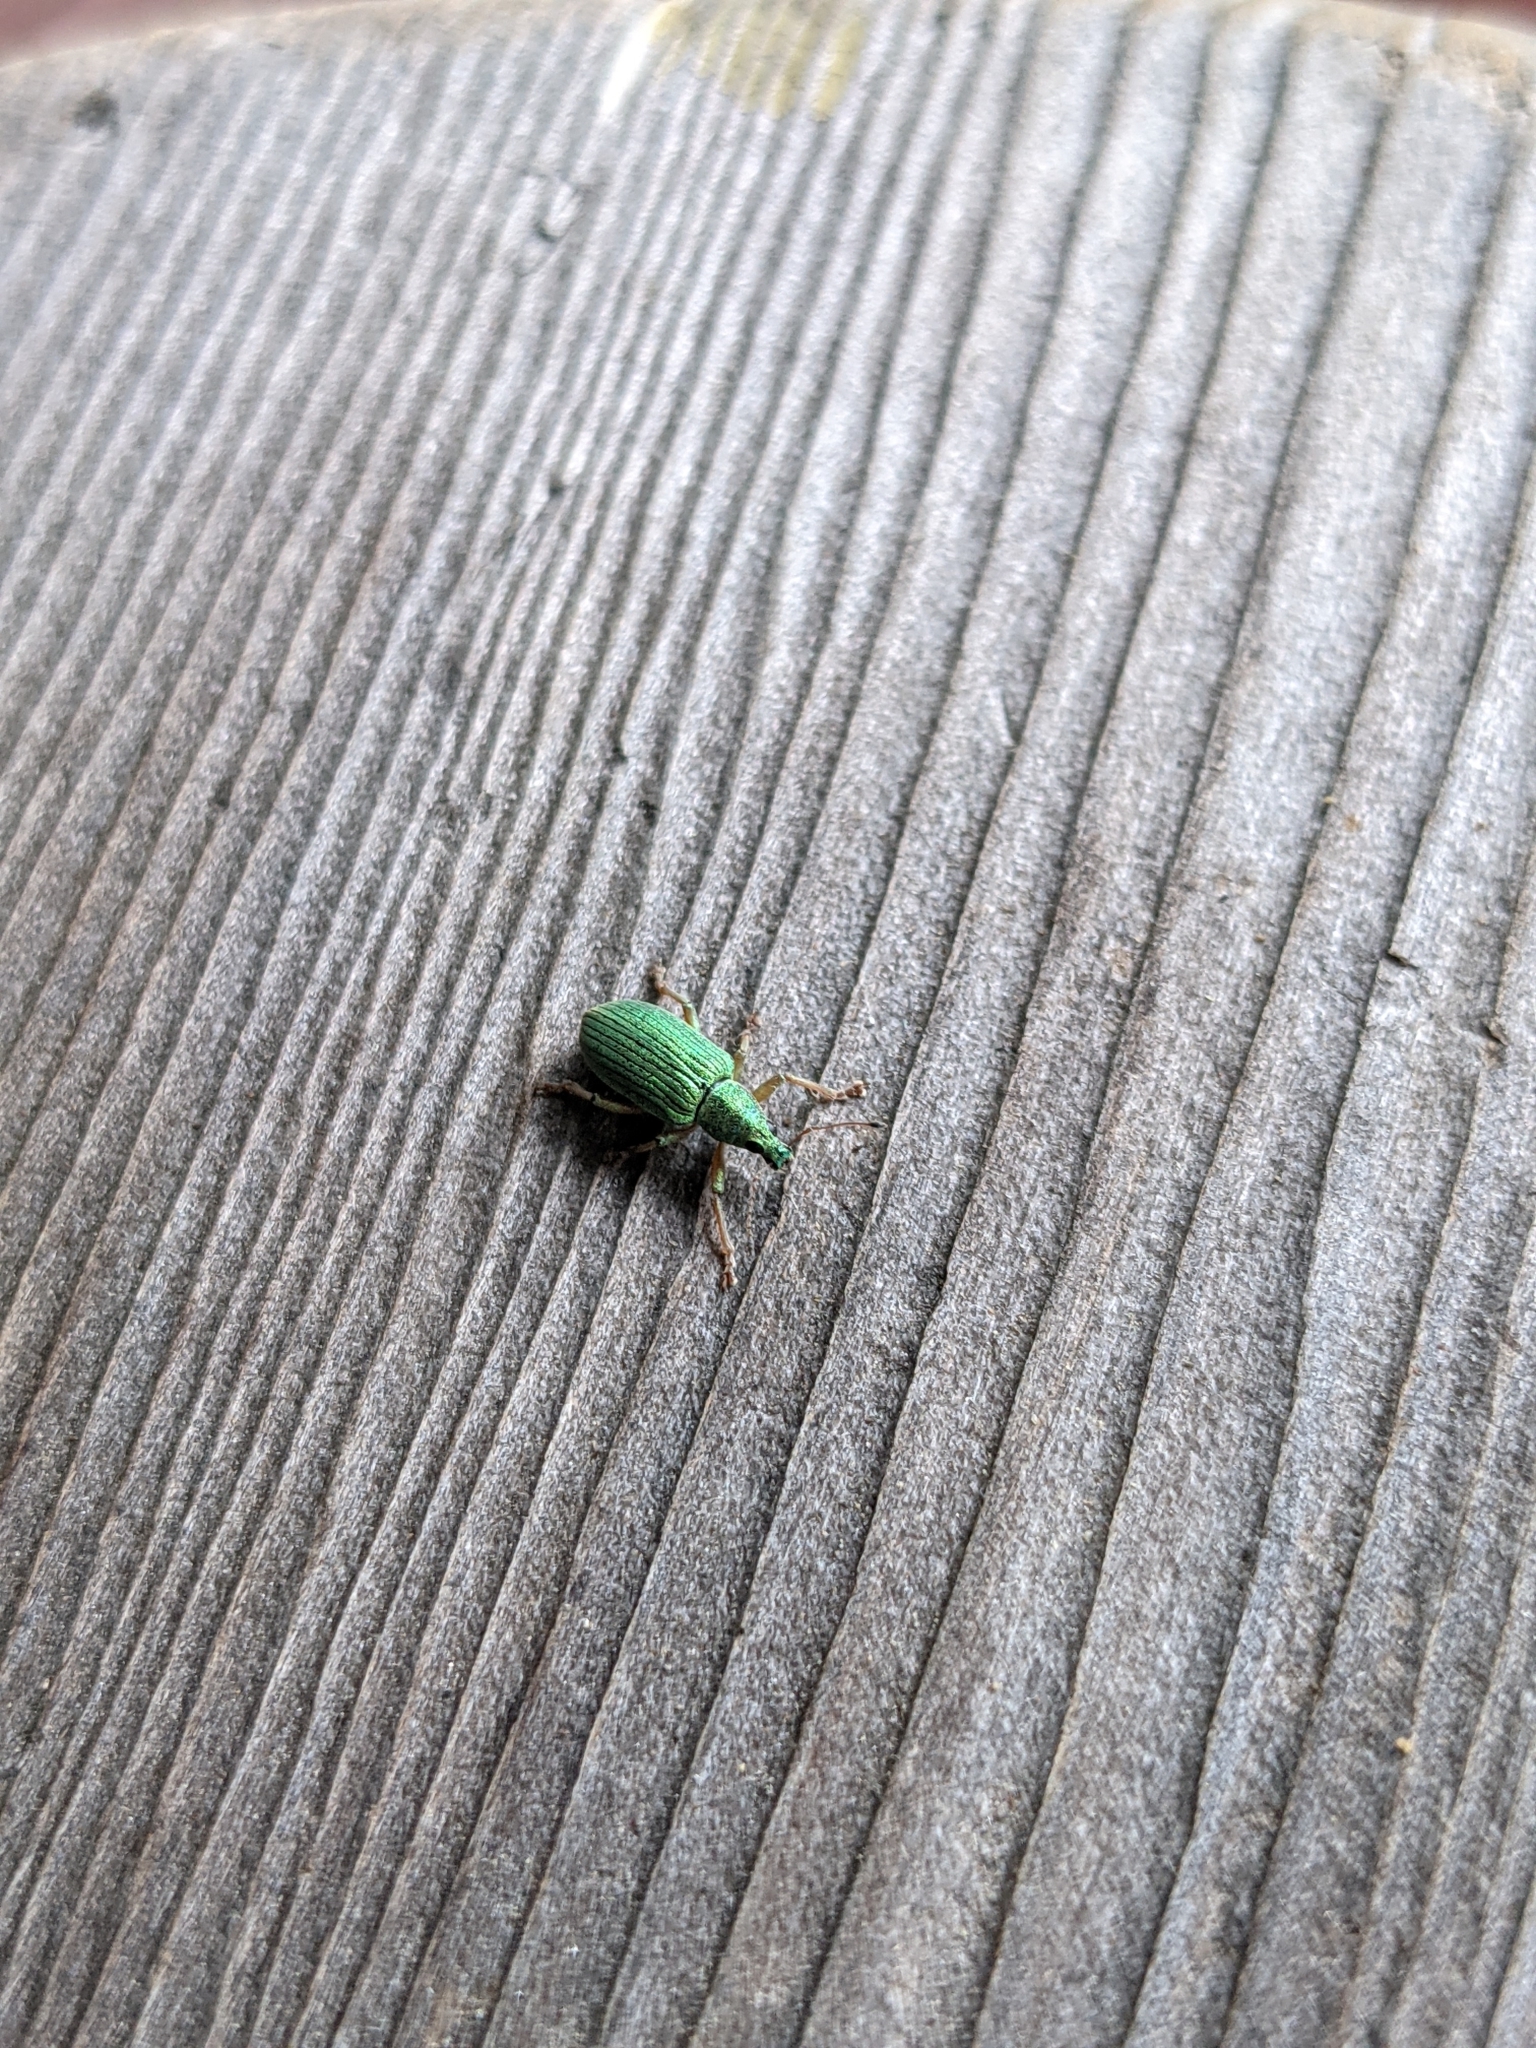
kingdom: Animalia
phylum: Arthropoda
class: Insecta
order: Coleoptera
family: Curculionidae
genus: Polydrusus
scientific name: Polydrusus formosus
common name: Weevil
